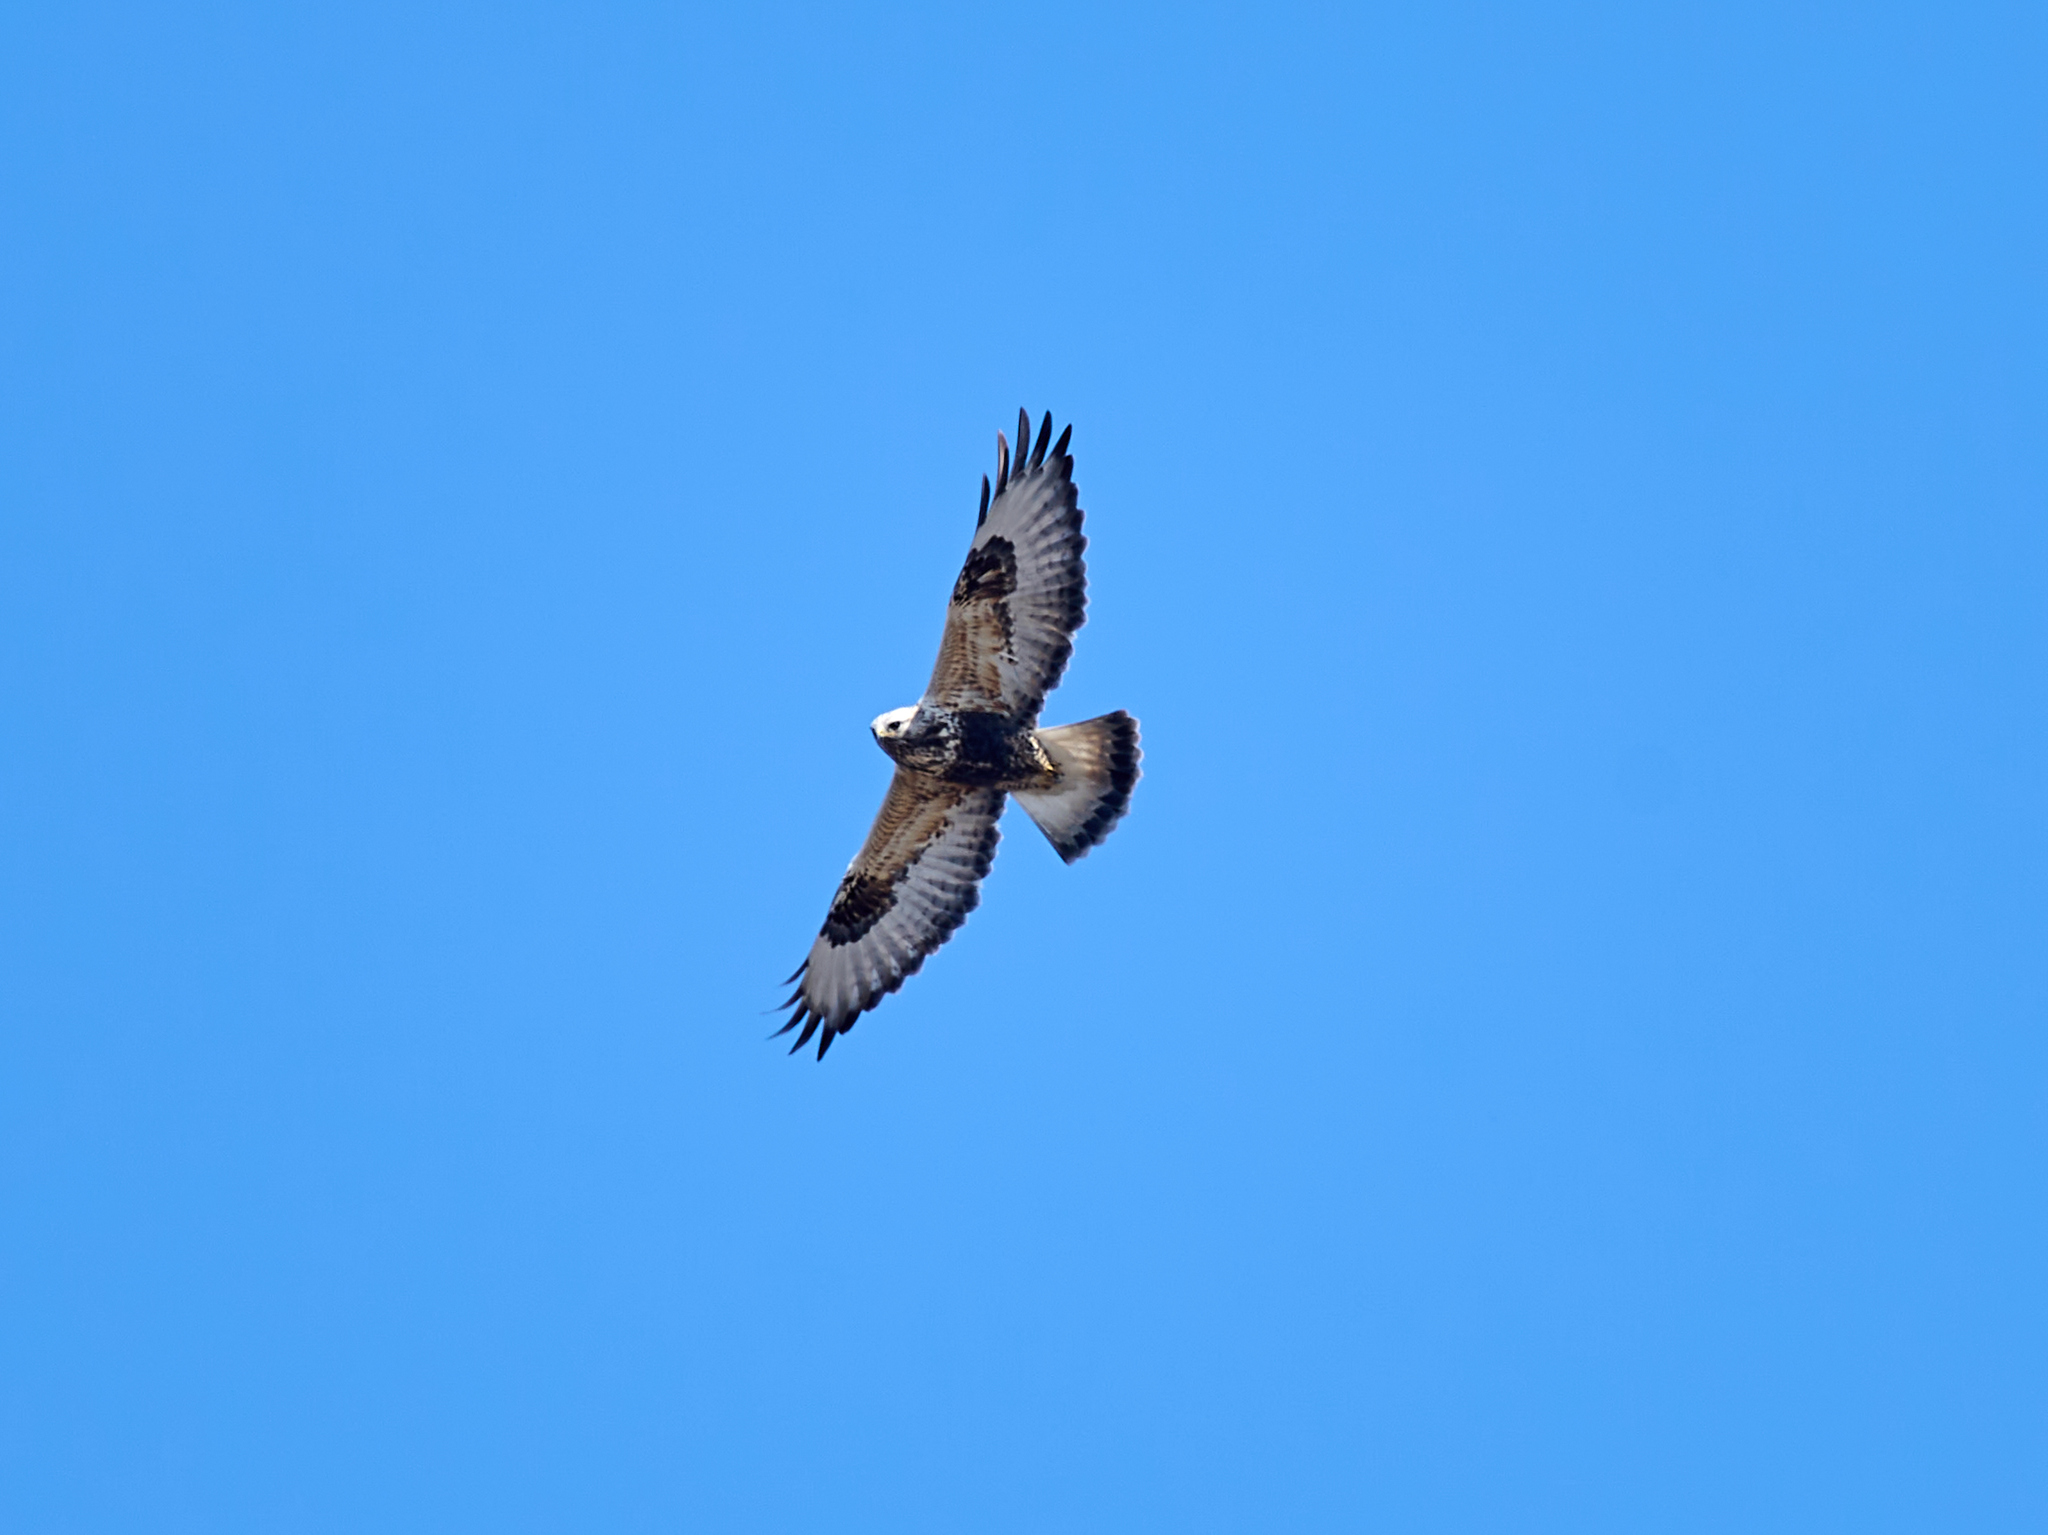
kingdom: Animalia
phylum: Chordata
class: Aves
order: Accipitriformes
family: Accipitridae
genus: Buteo
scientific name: Buteo lagopus
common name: Rough-legged buzzard
